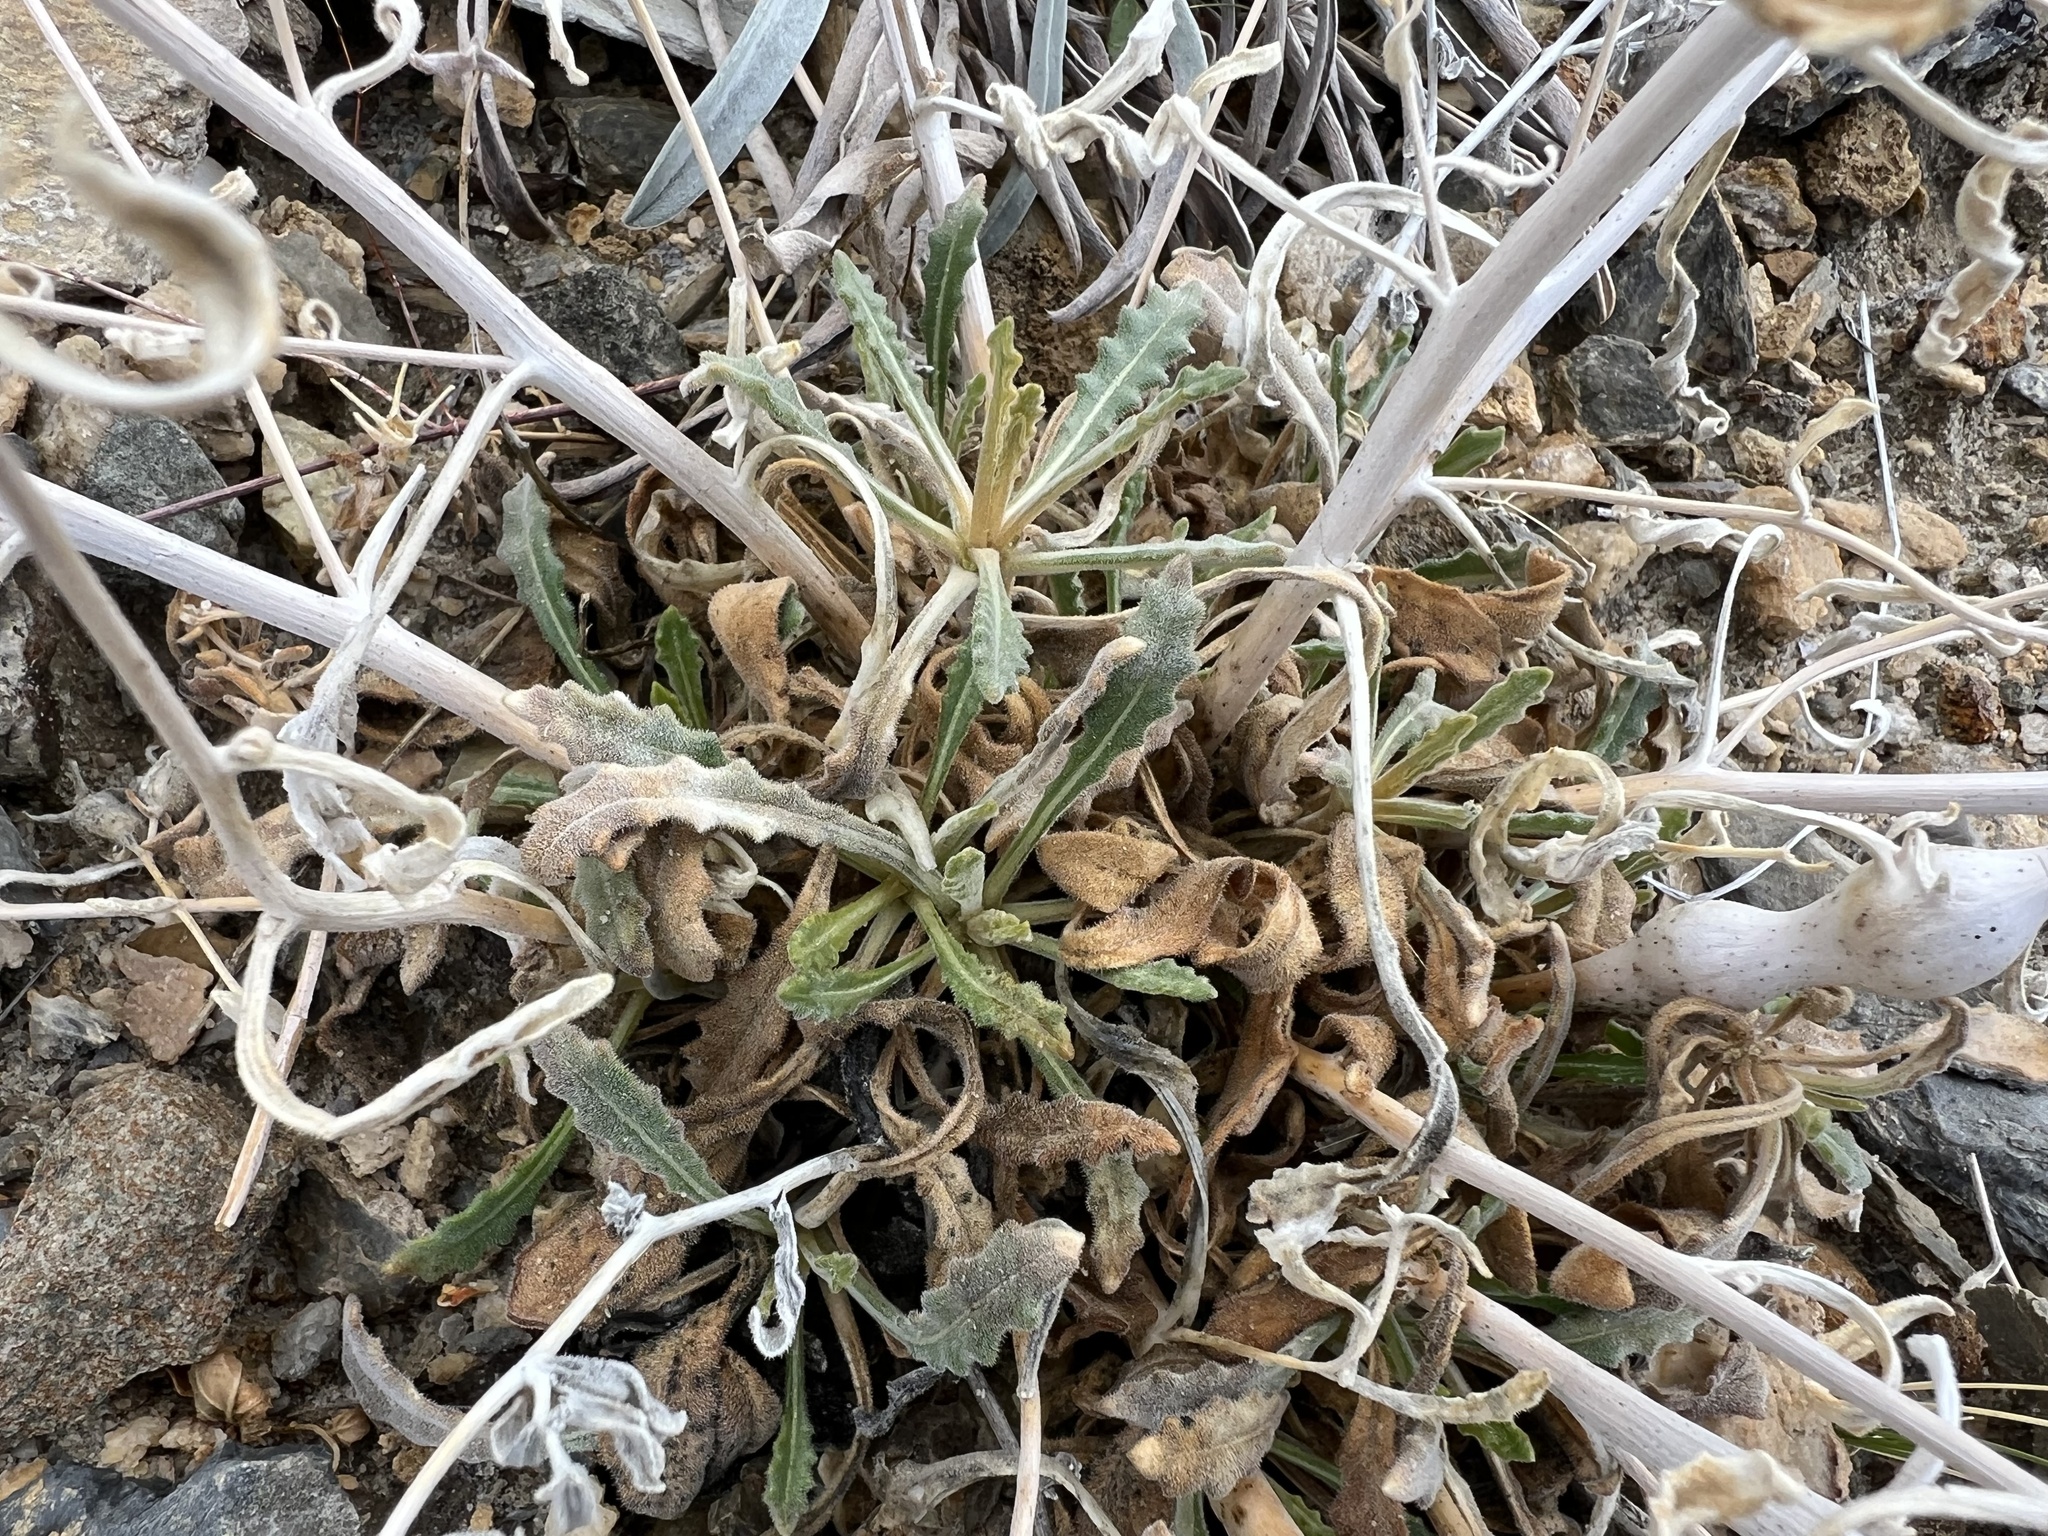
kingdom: Plantae
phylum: Tracheophyta
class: Magnoliopsida
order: Cornales
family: Loasaceae
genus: Mentzelia
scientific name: Mentzelia oreophila
